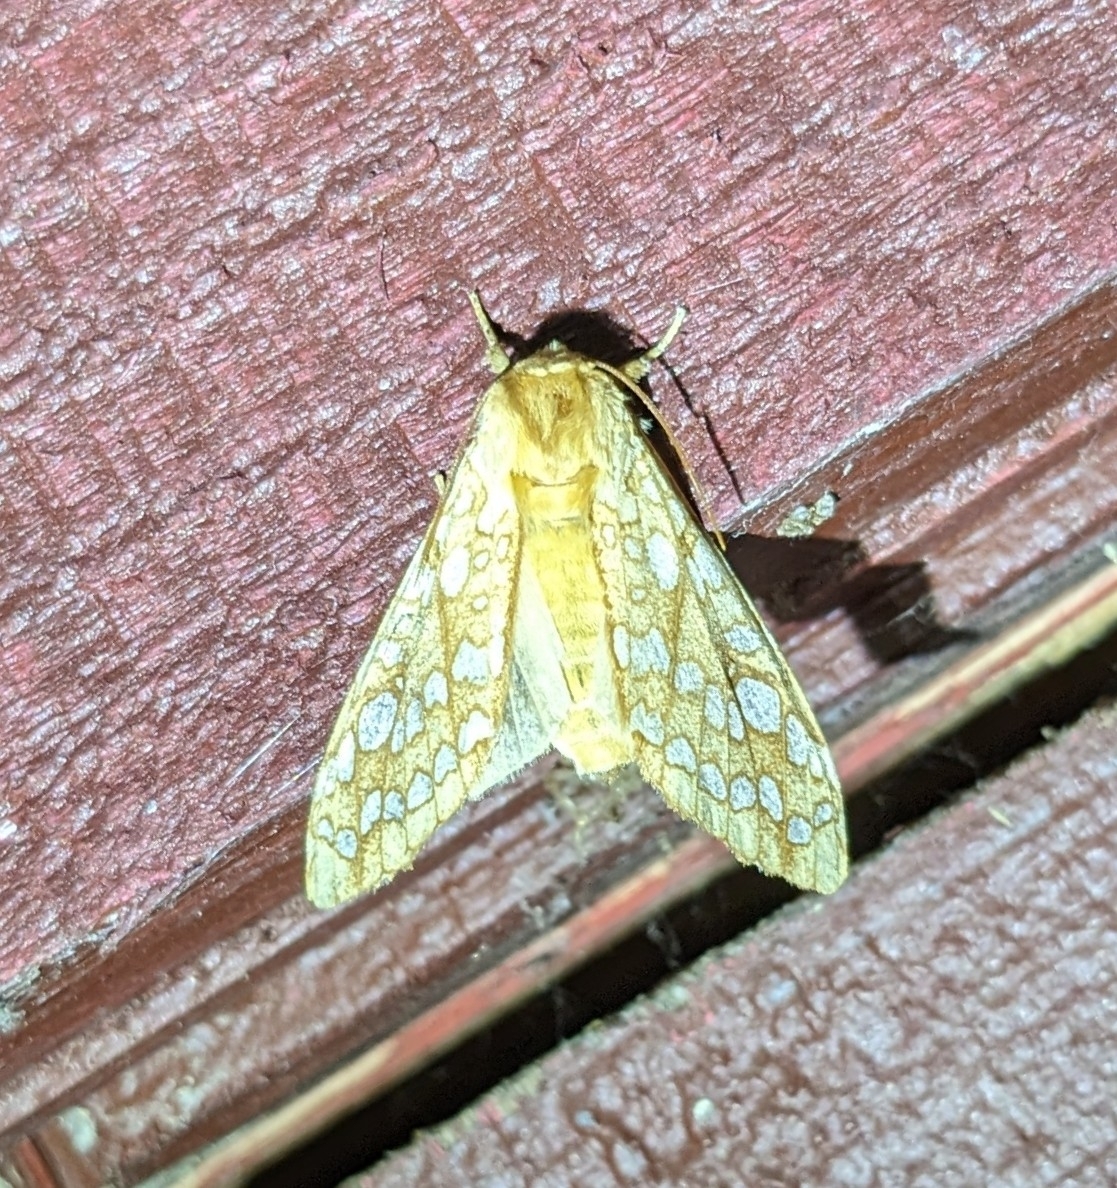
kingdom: Animalia
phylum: Arthropoda
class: Insecta
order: Lepidoptera
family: Erebidae
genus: Lophocampa
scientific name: Lophocampa caryae
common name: Hickory tussock moth
